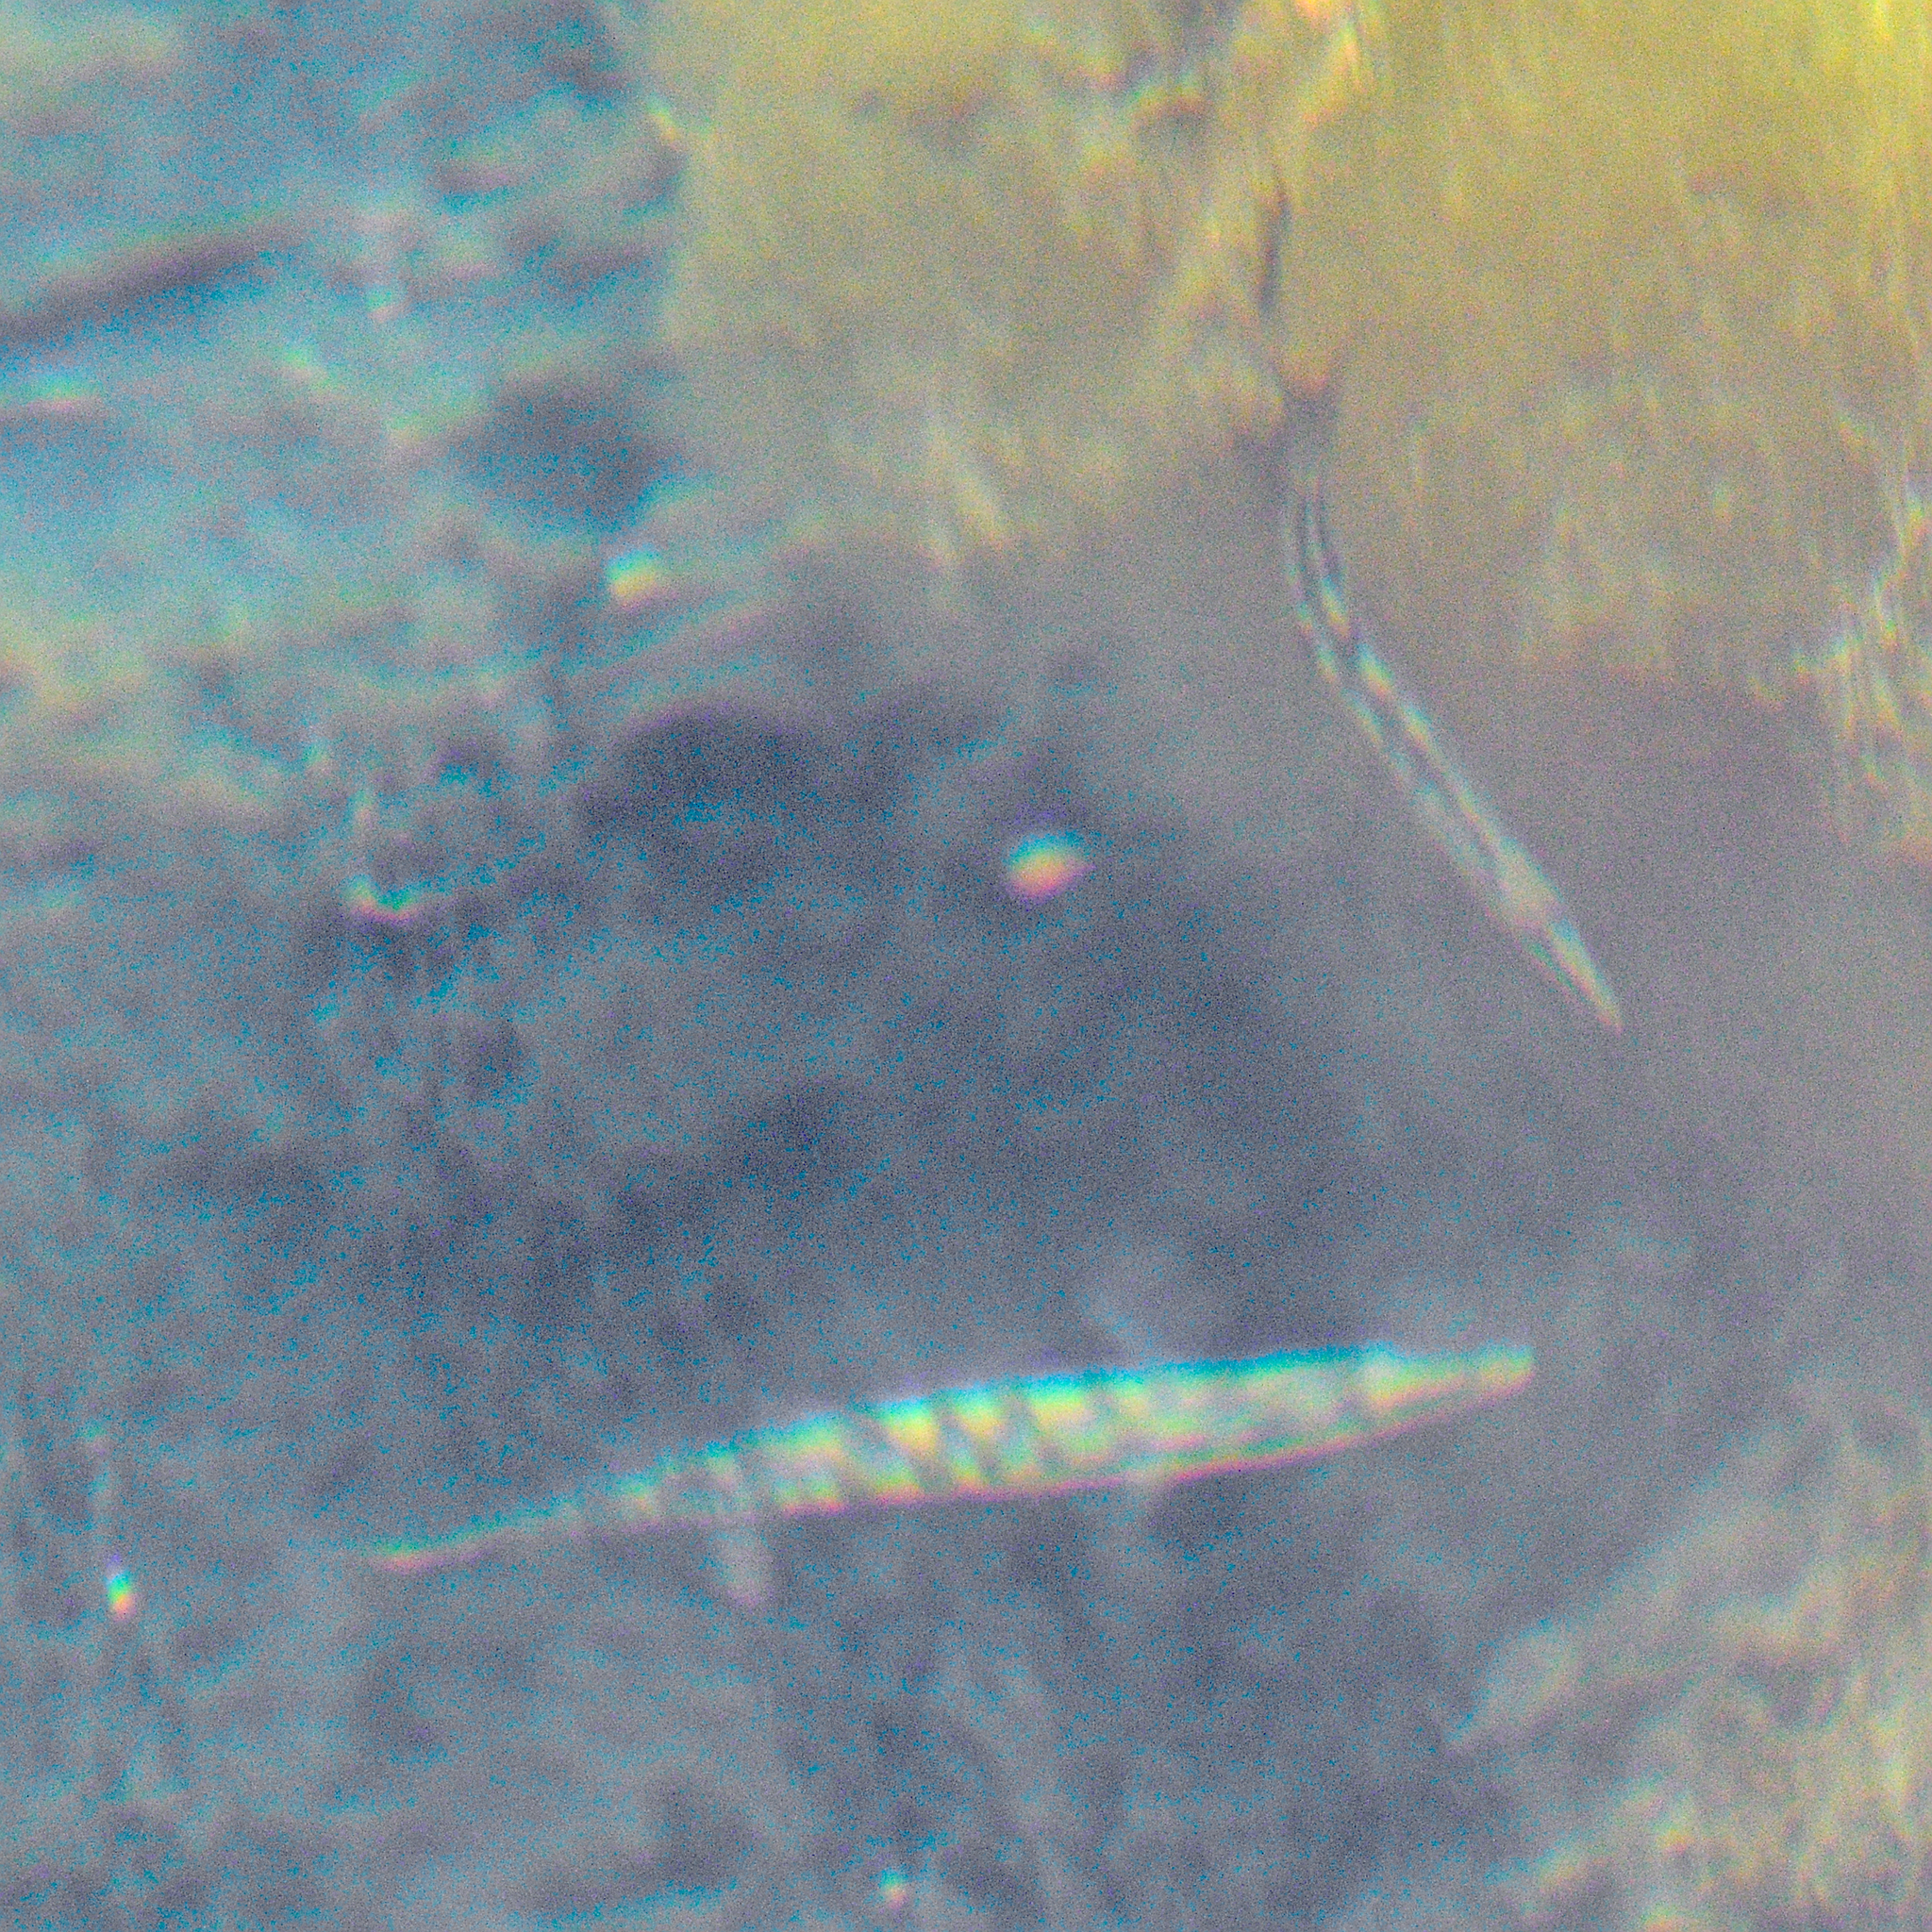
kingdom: Animalia
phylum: Chordata
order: Gasterosteiformes
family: Gasterosteidae
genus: Spinachia
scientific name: Spinachia spinachia
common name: Fifteen-spined stickleback
